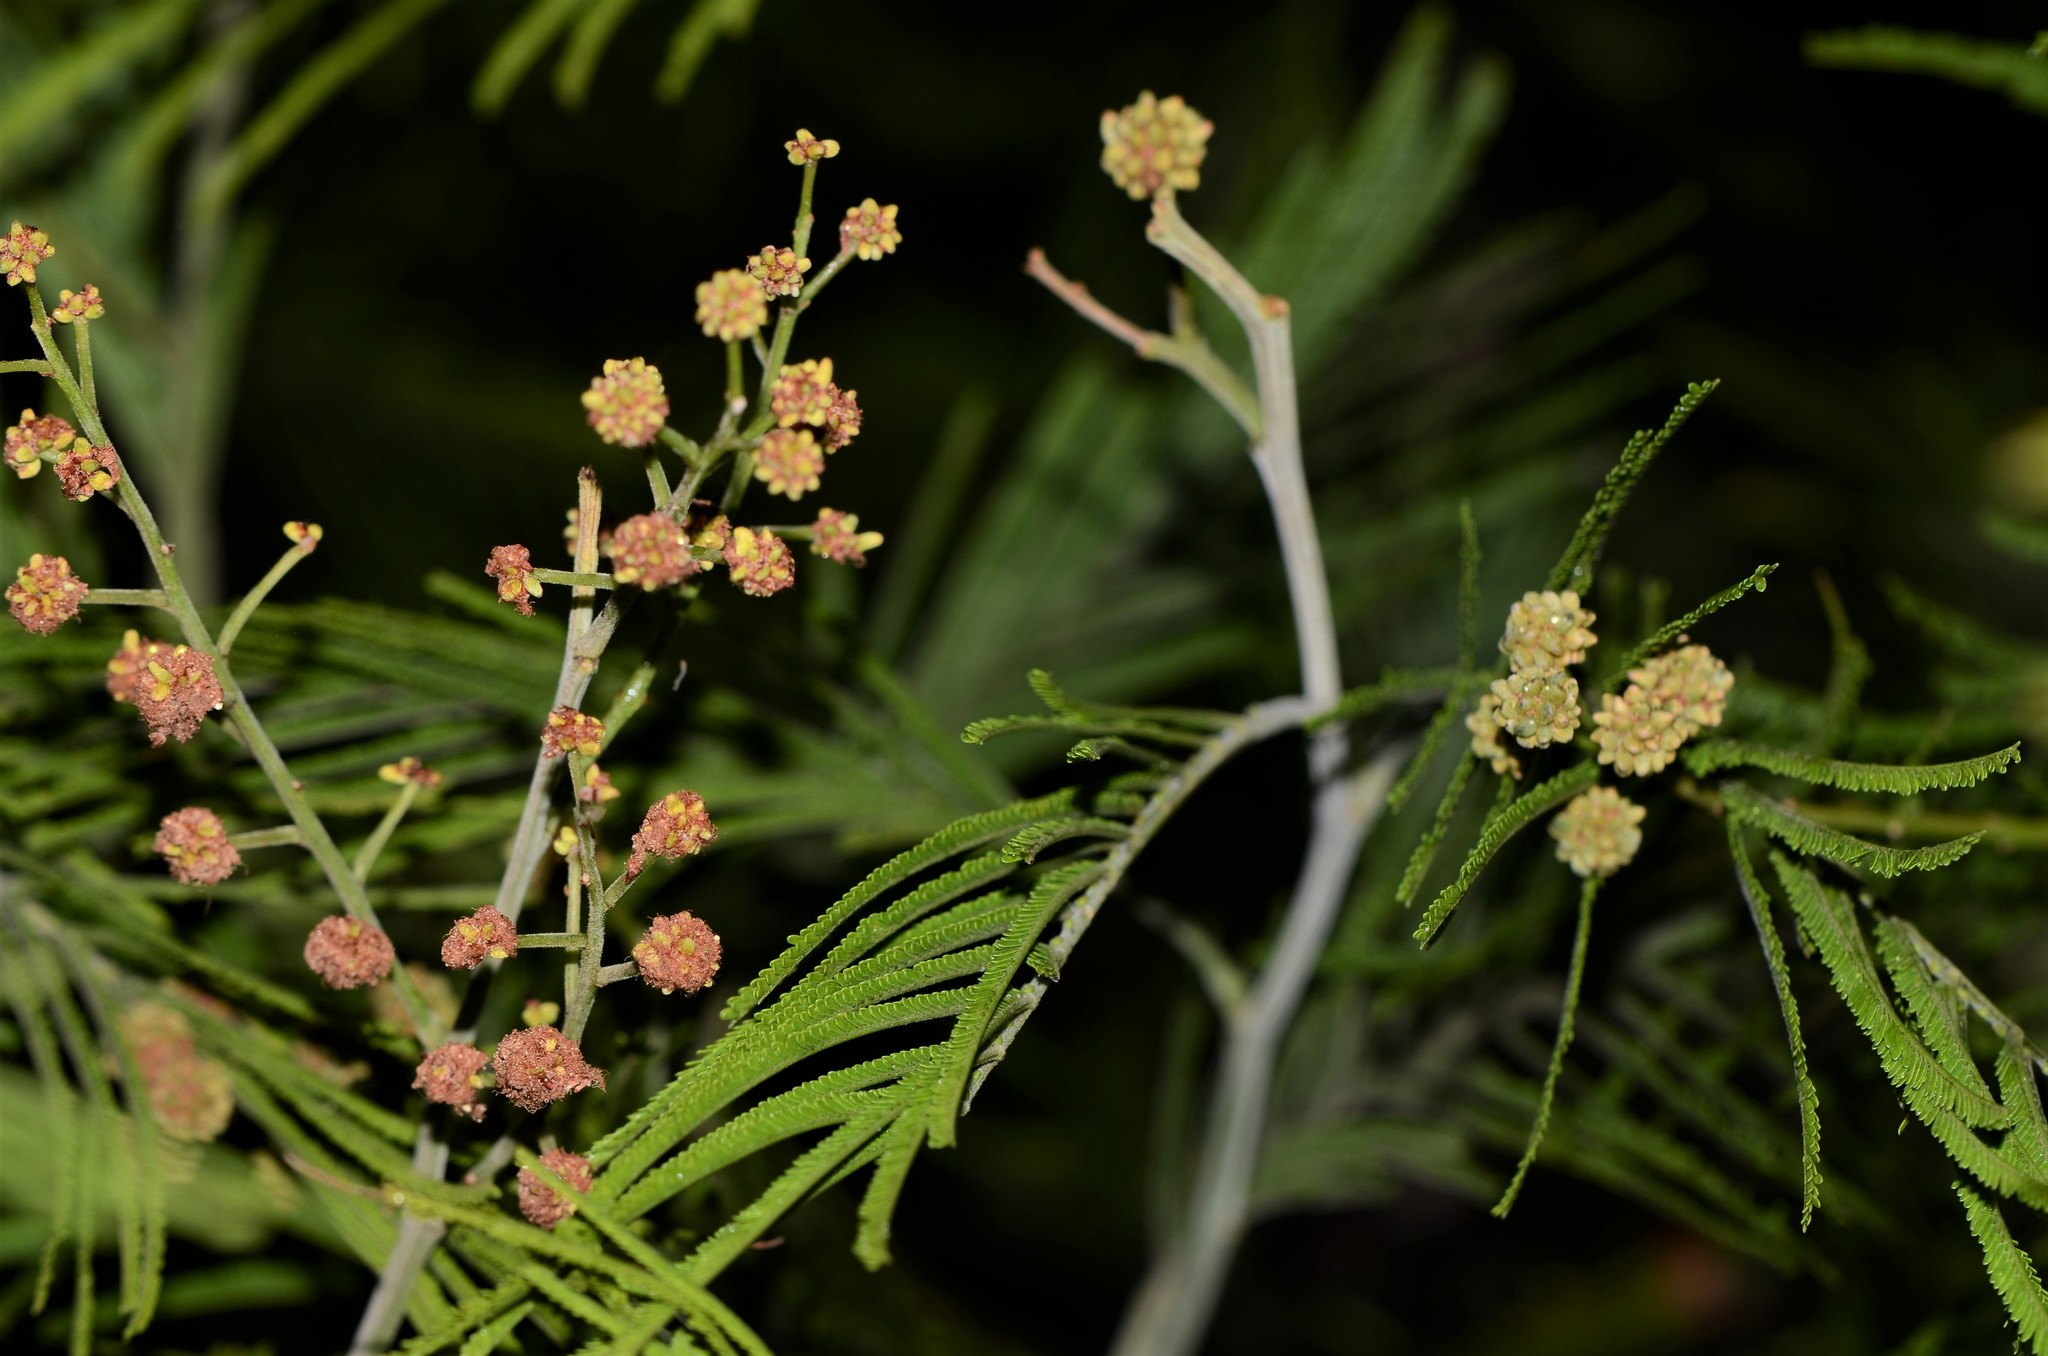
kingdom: Plantae
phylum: Tracheophyta
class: Magnoliopsida
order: Fabales
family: Fabaceae
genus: Acacia
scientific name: Acacia mearnsii
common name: Black wattle
